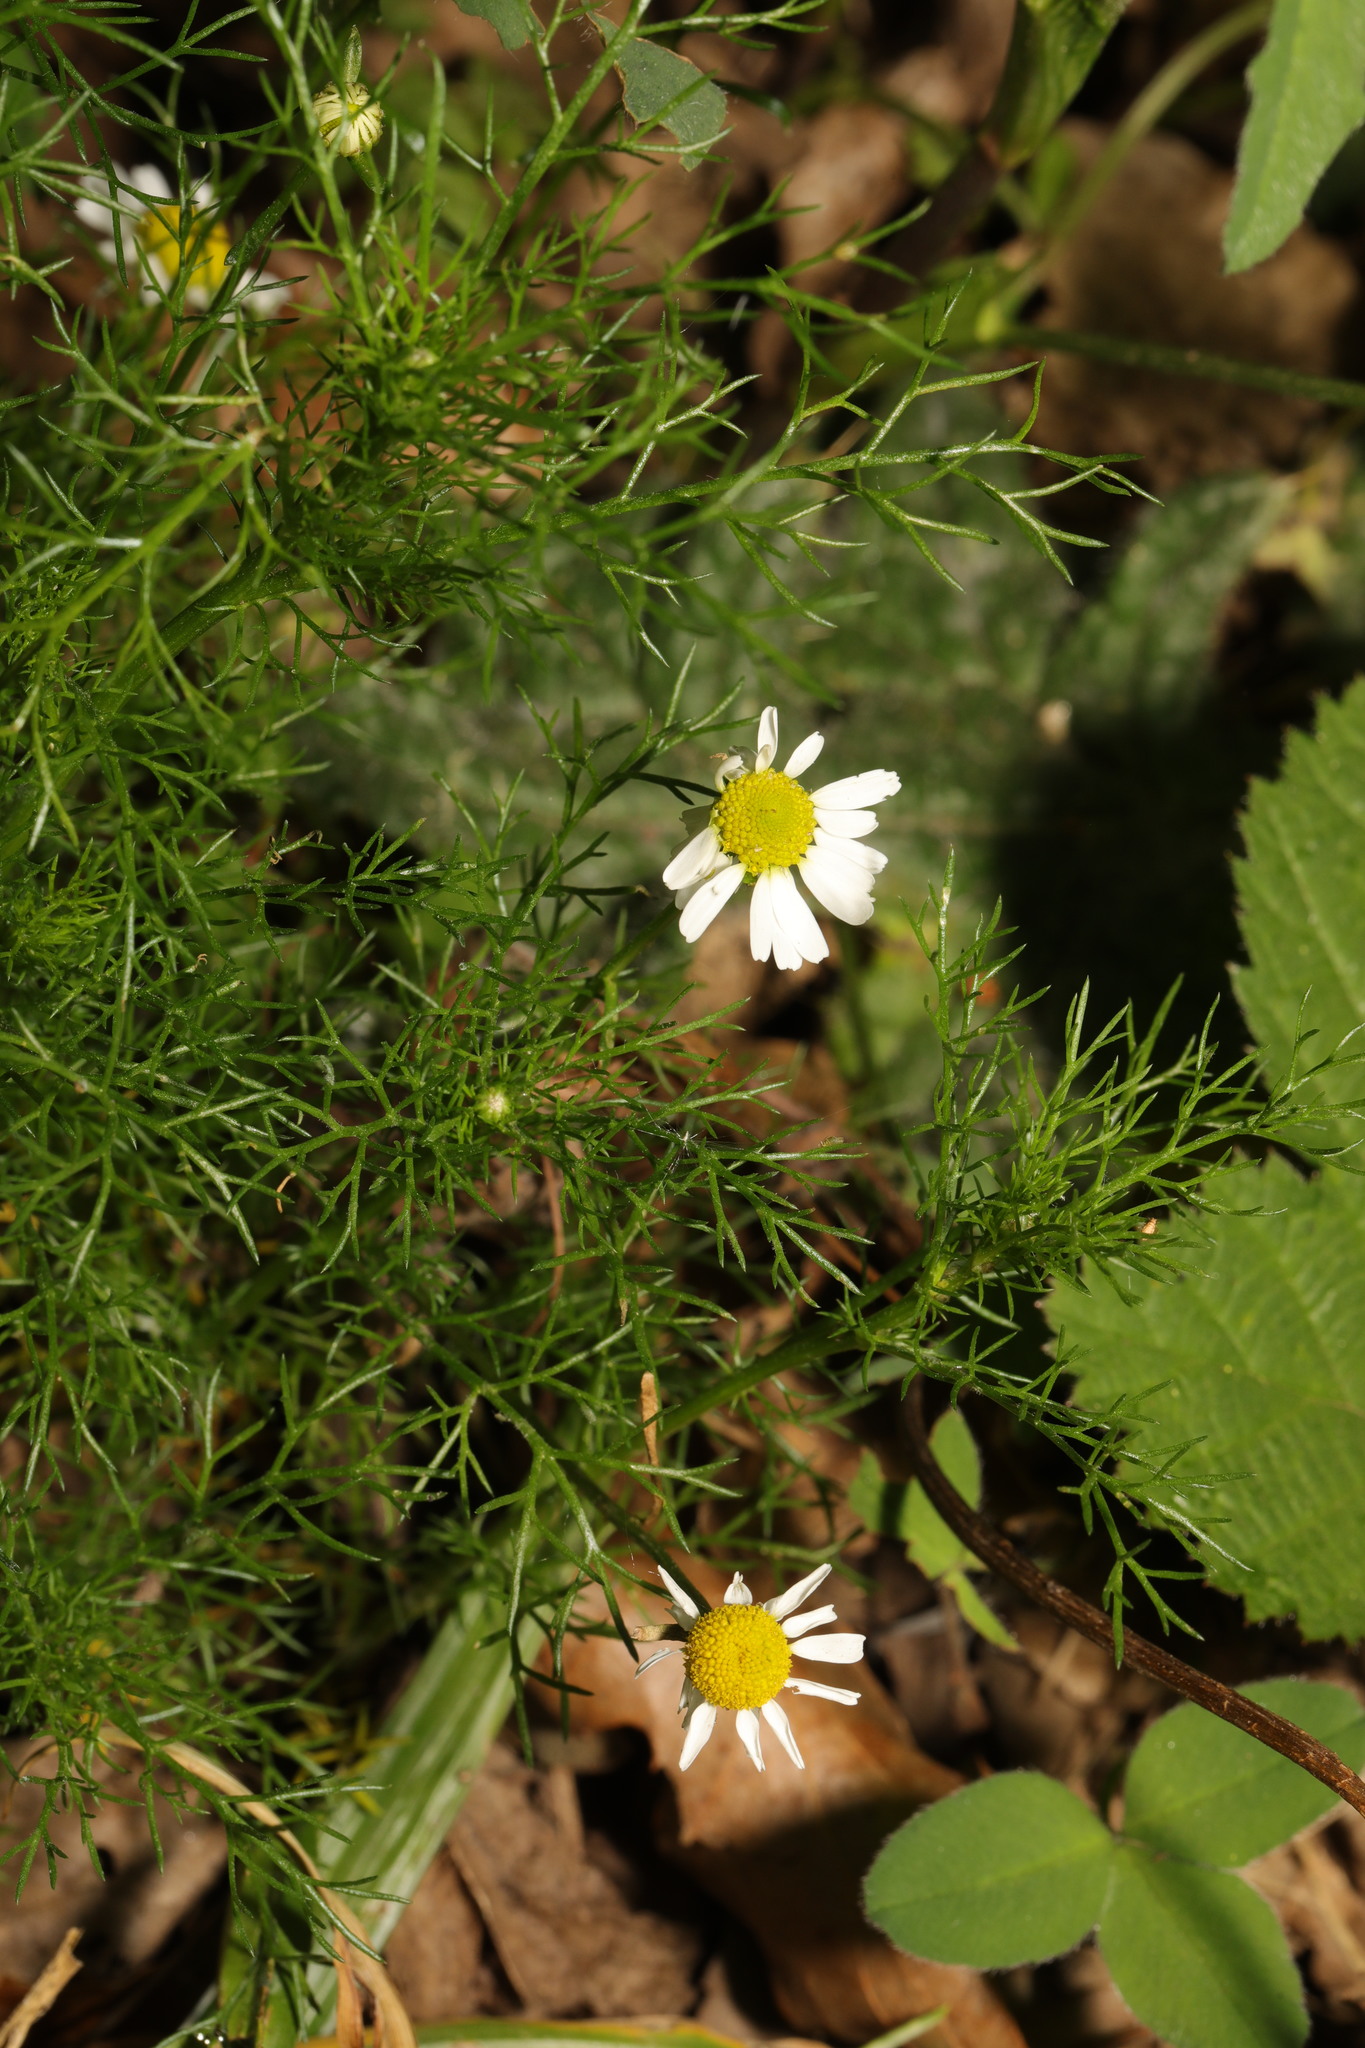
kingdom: Plantae
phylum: Tracheophyta
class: Magnoliopsida
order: Asterales
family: Asteraceae
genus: Matricaria
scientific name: Matricaria chamomilla
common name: Scented mayweed
